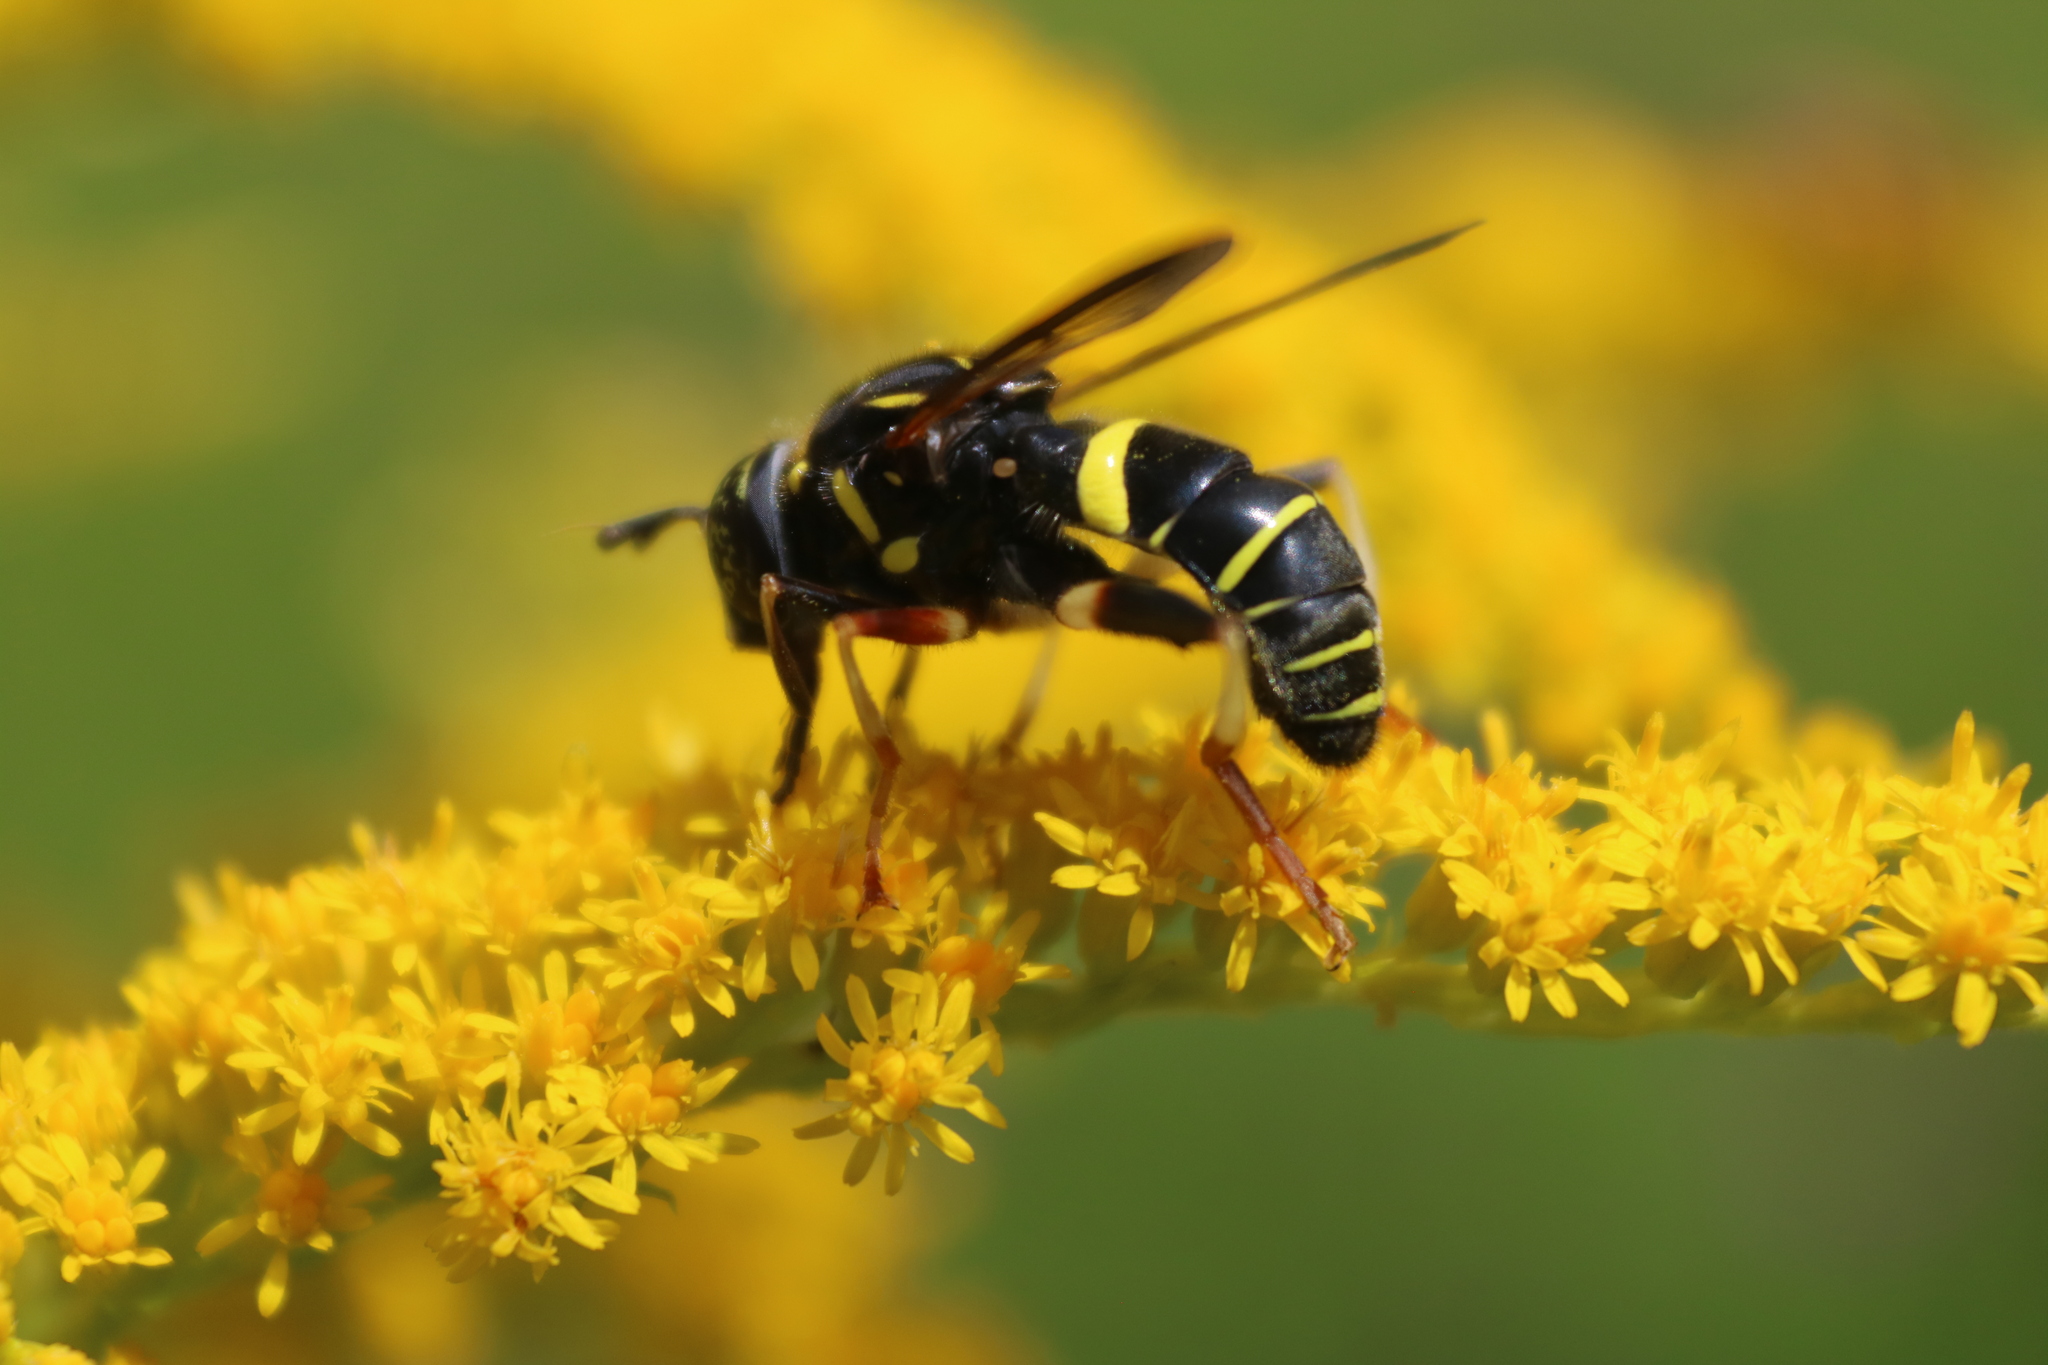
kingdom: Animalia
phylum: Arthropoda
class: Insecta
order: Diptera
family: Syrphidae
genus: Spilomyia
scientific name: Spilomyia sayi
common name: Four-lined hornet fly
